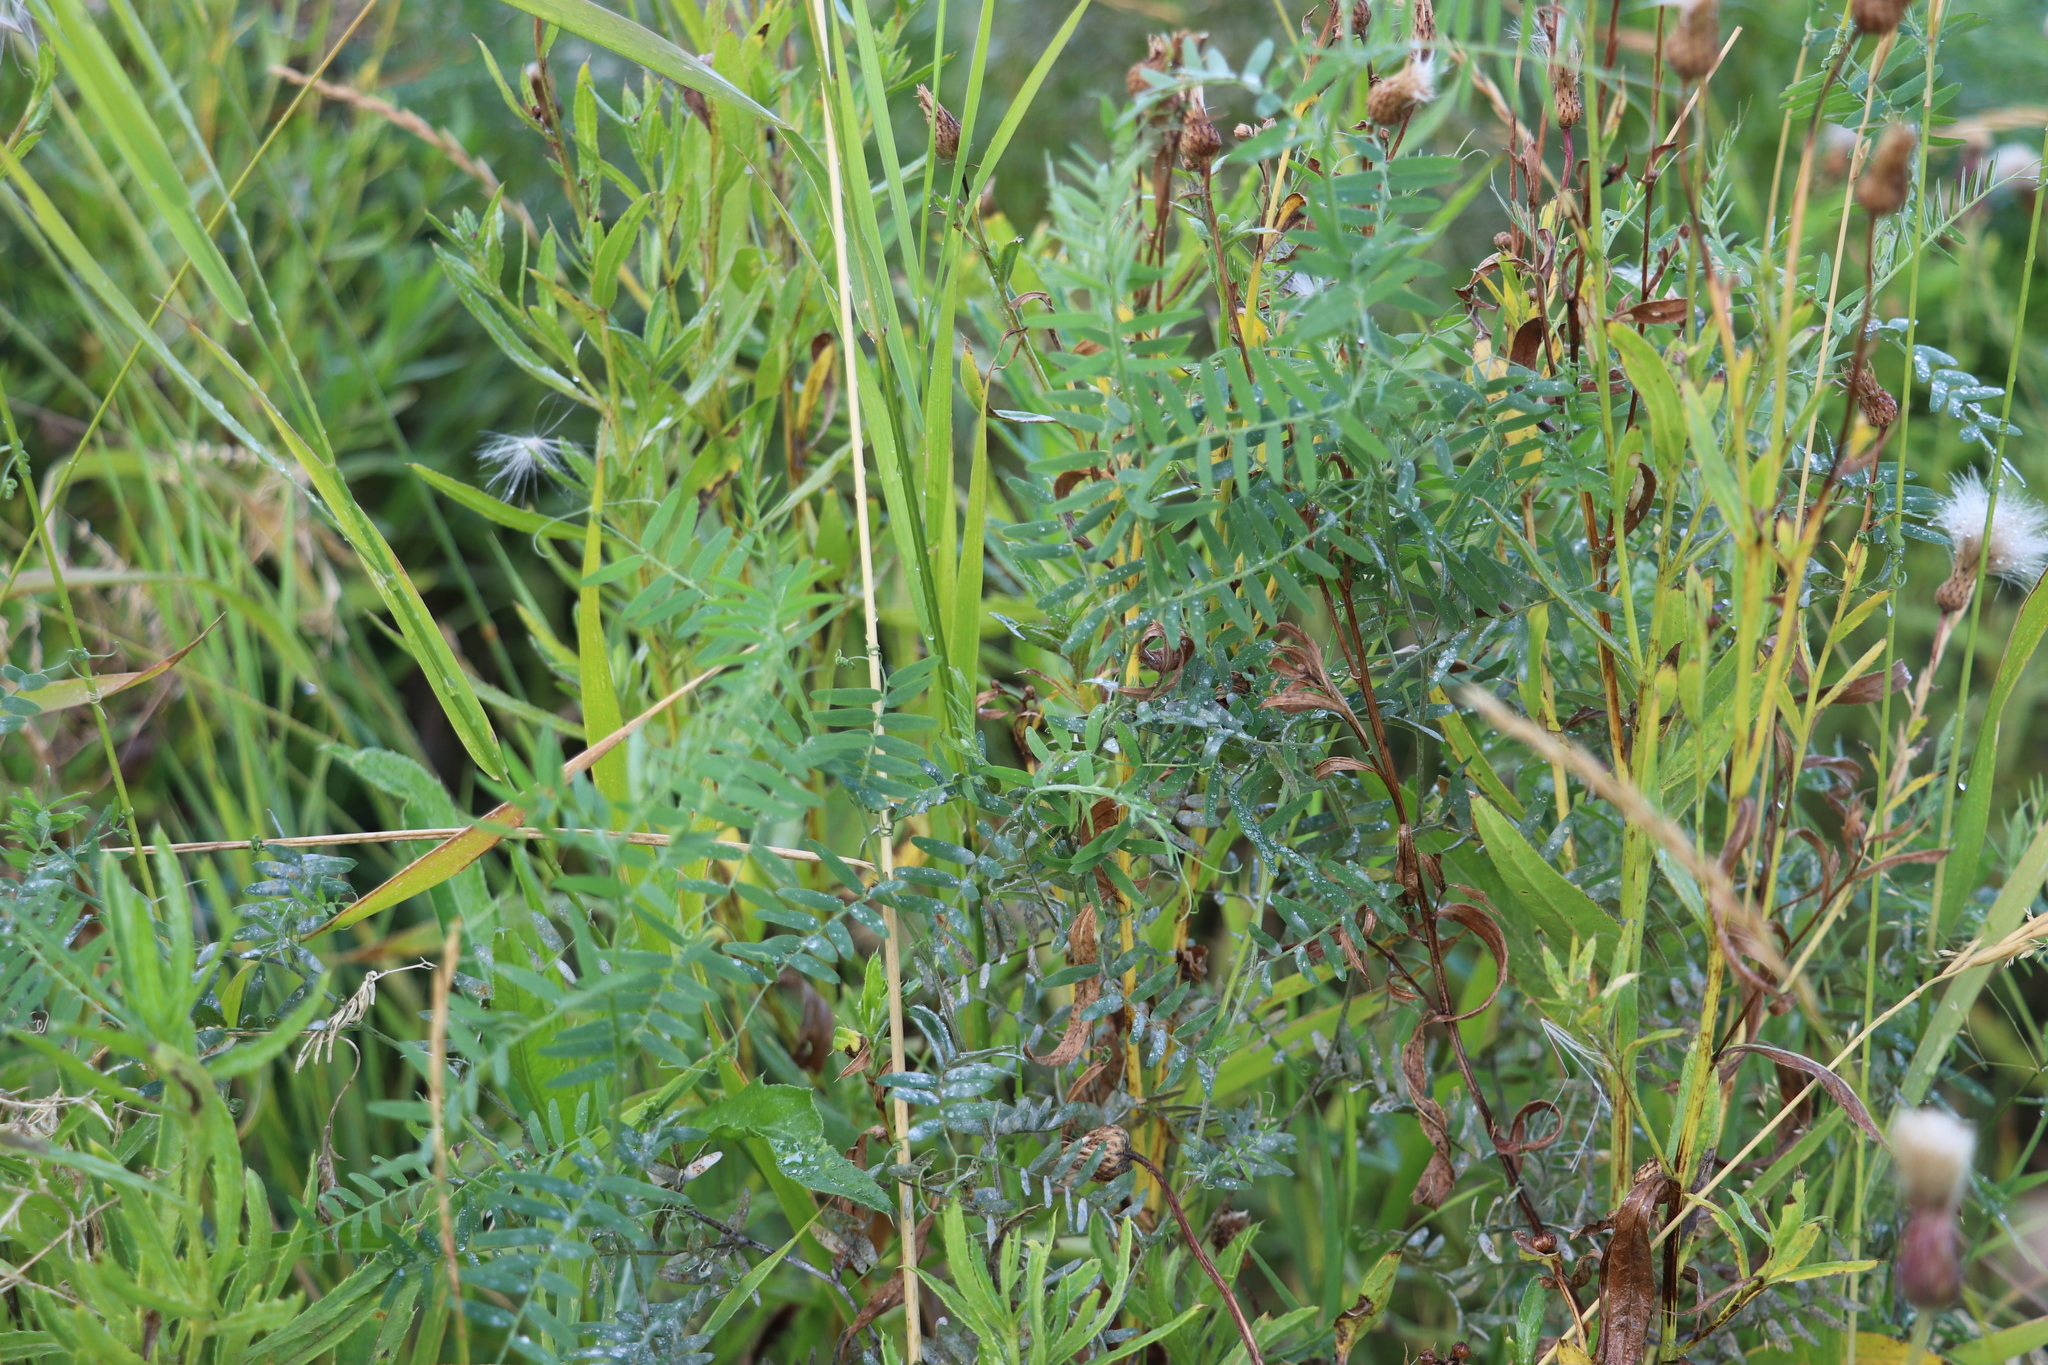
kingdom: Plantae
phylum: Tracheophyta
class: Magnoliopsida
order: Fabales
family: Fabaceae
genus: Vicia
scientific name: Vicia cracca
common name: Bird vetch
